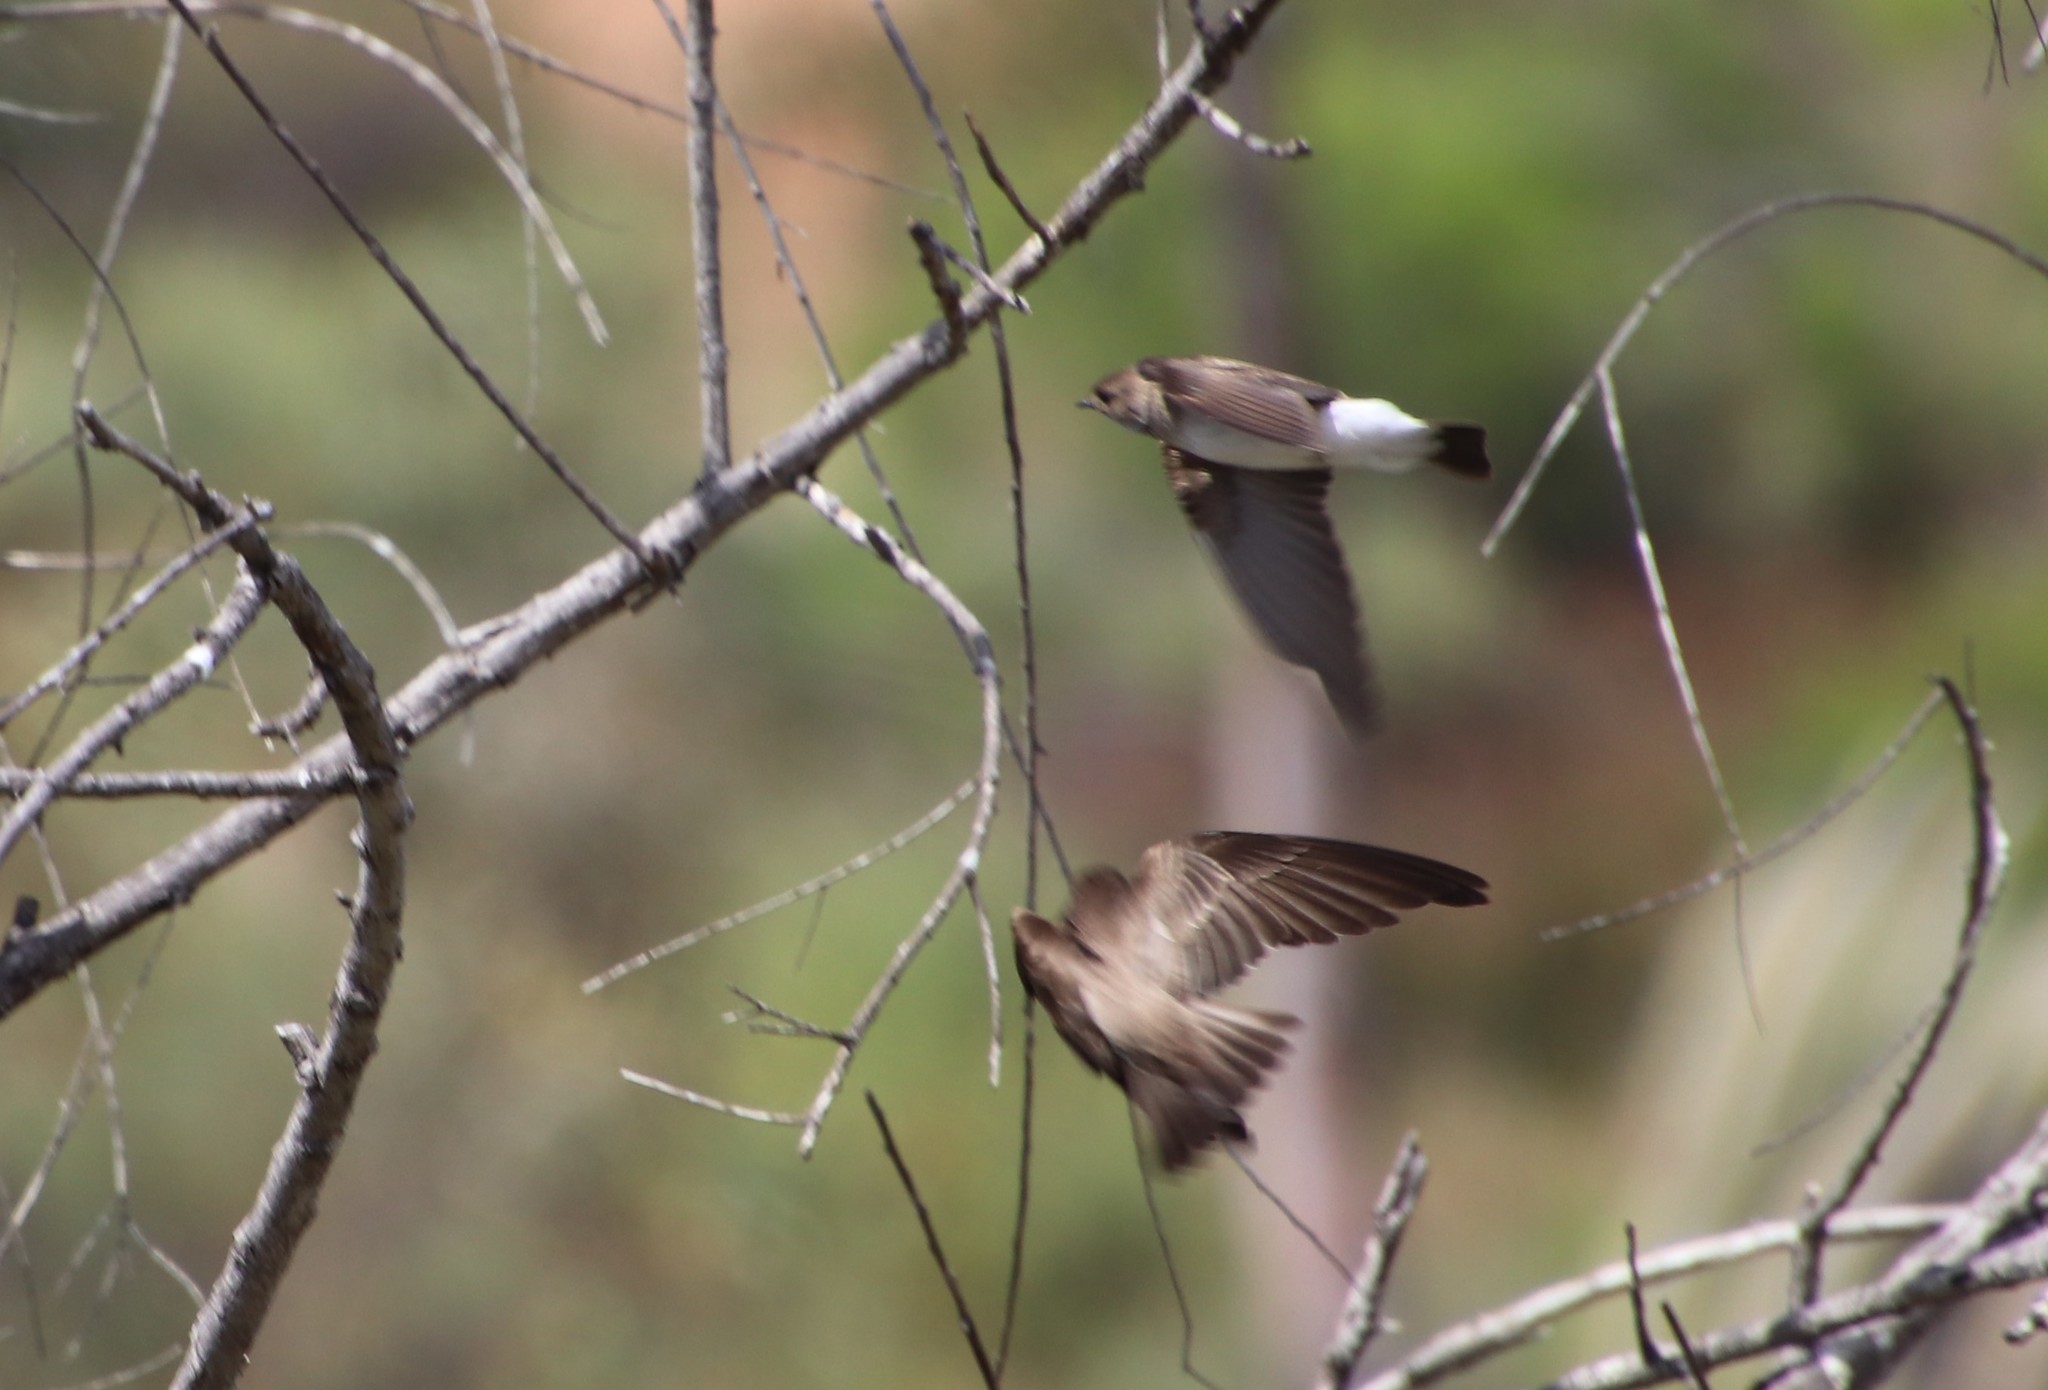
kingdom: Animalia
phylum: Chordata
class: Aves
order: Passeriformes
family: Hirundinidae
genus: Stelgidopteryx
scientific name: Stelgidopteryx serripennis
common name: Northern rough-winged swallow
